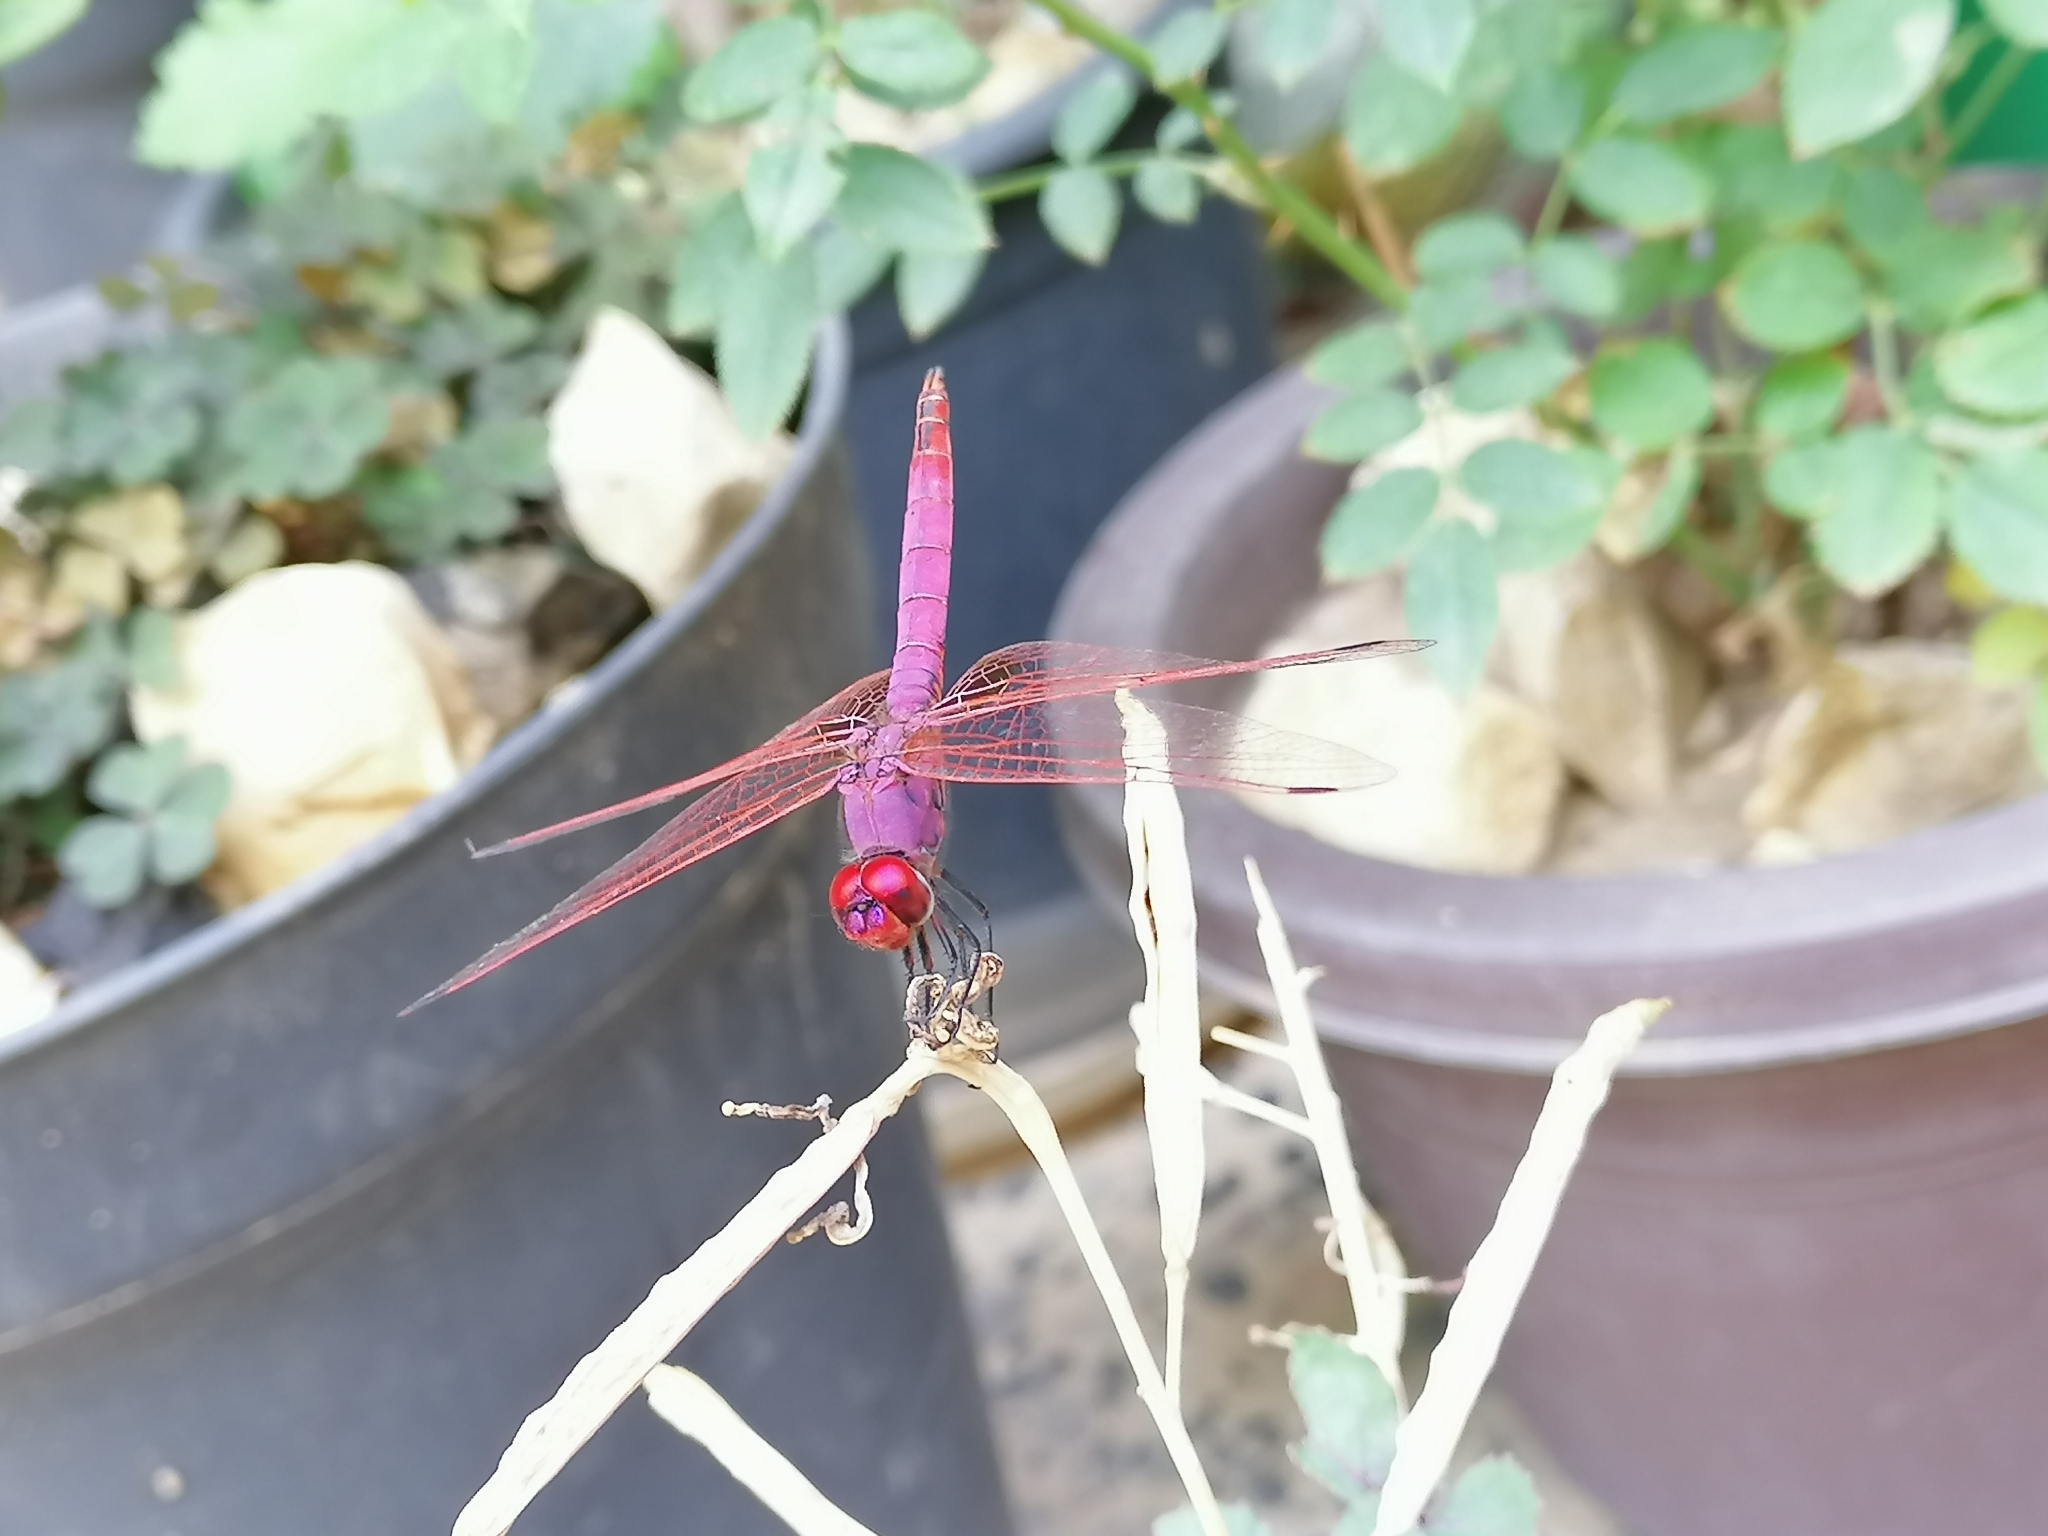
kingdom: Animalia
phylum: Arthropoda
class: Insecta
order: Odonata
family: Libellulidae
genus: Trithemis
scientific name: Trithemis annulata
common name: Violet dropwing
